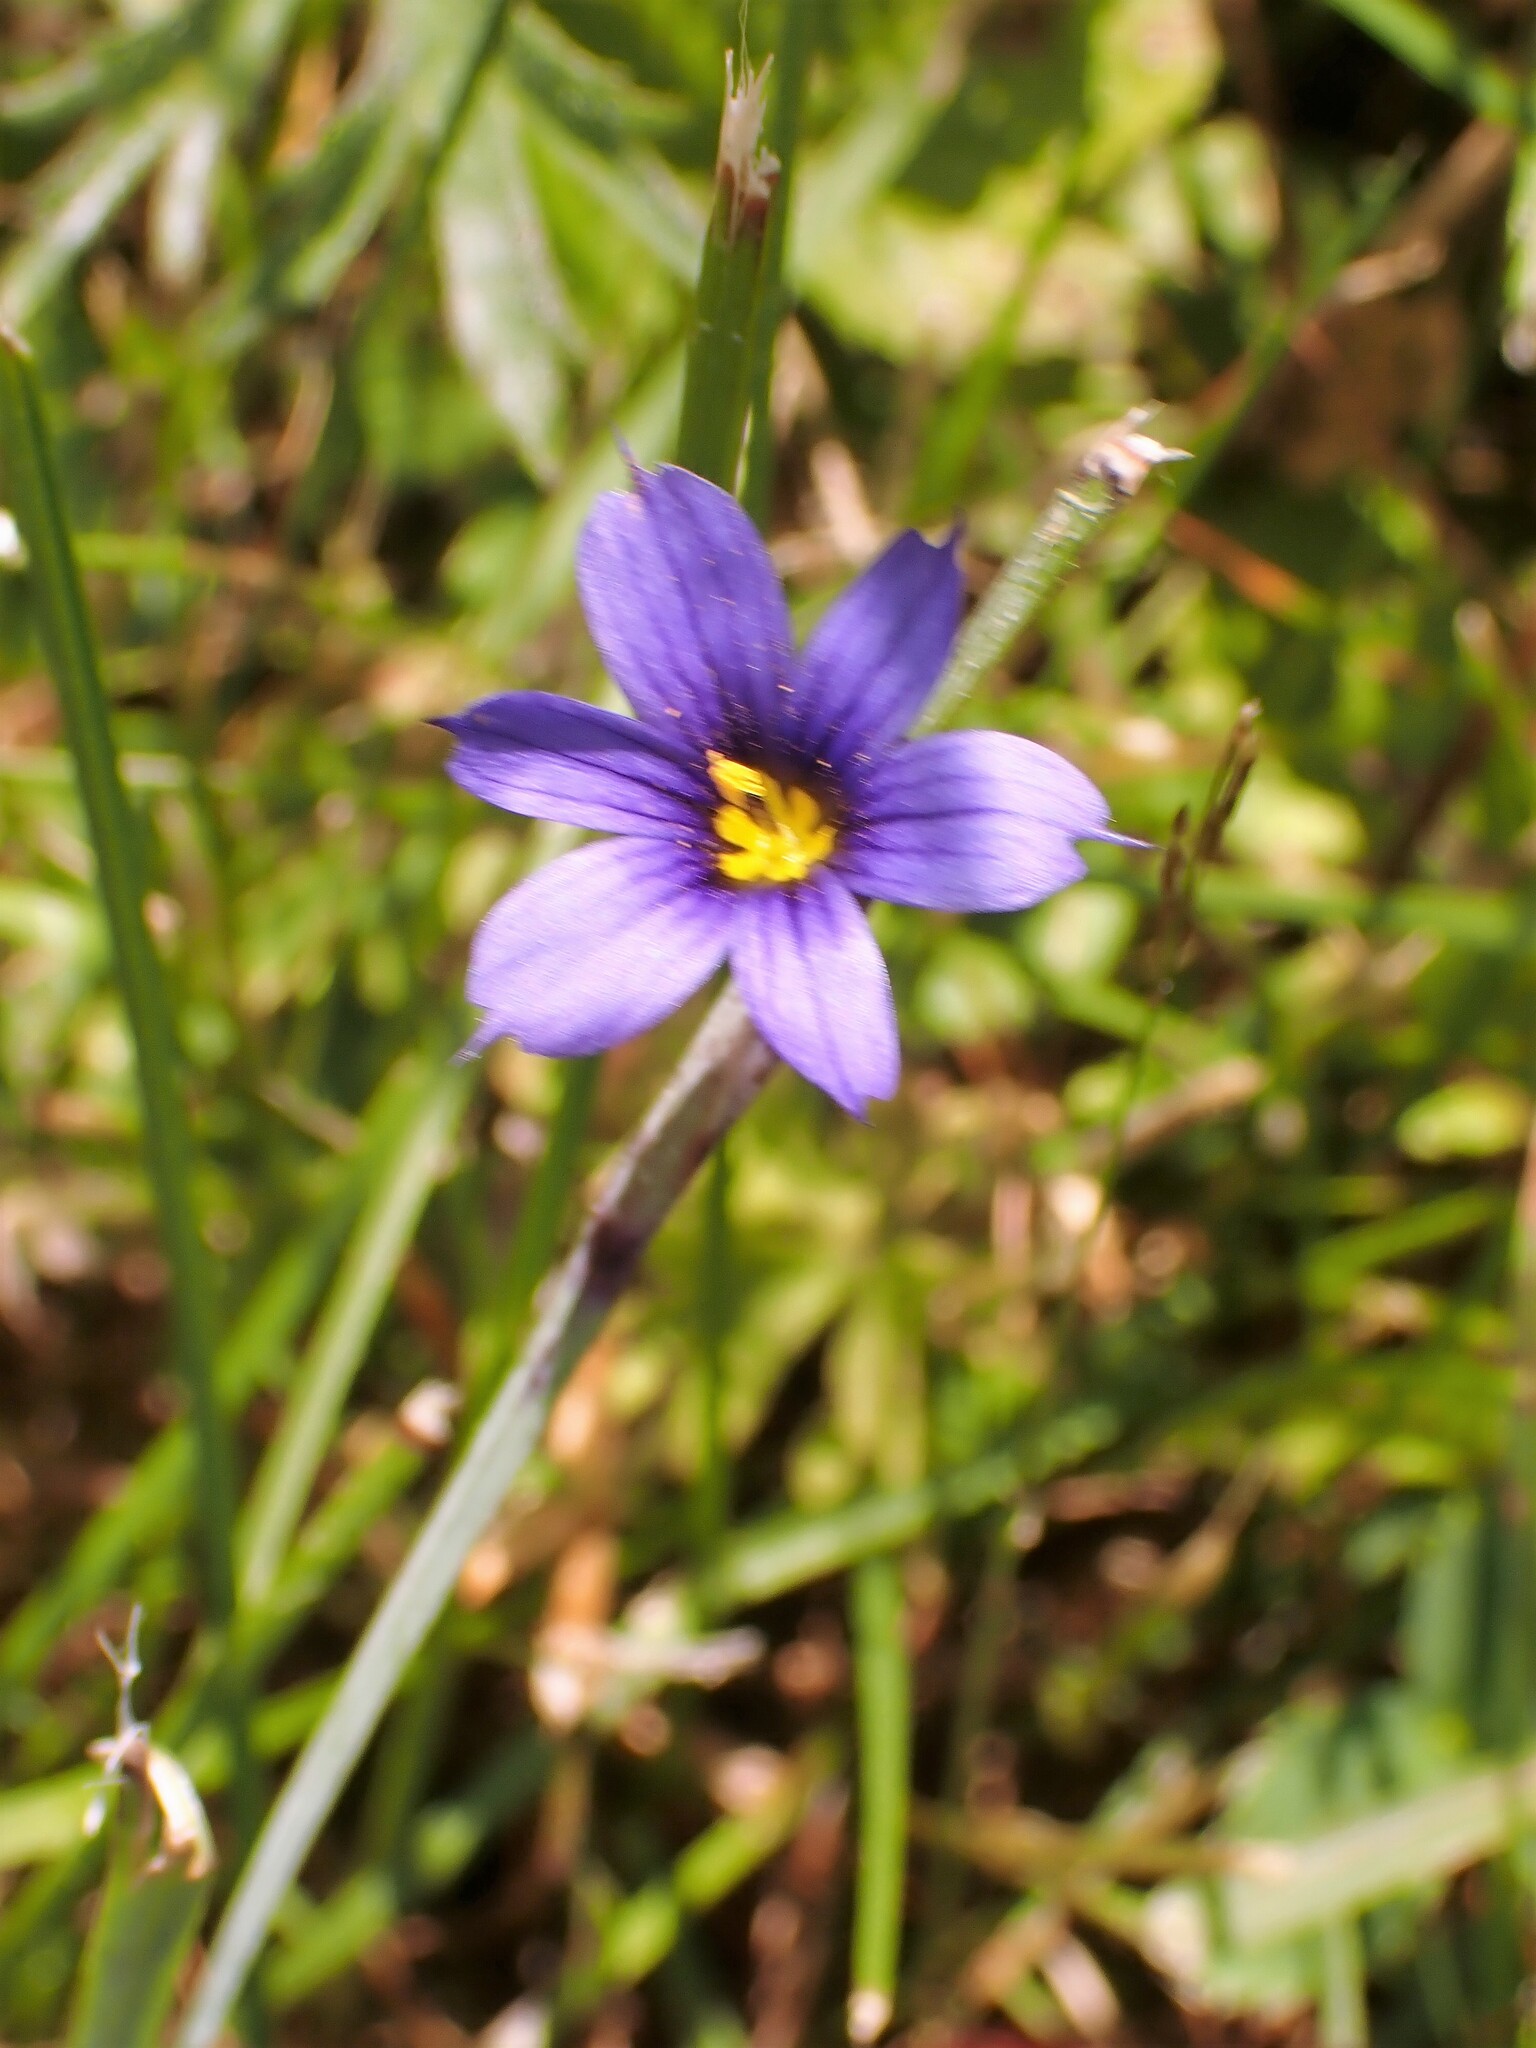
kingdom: Plantae
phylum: Tracheophyta
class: Liliopsida
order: Asparagales
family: Iridaceae
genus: Sisyrinchium
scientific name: Sisyrinchium montanum
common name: American blue-eyed-grass
